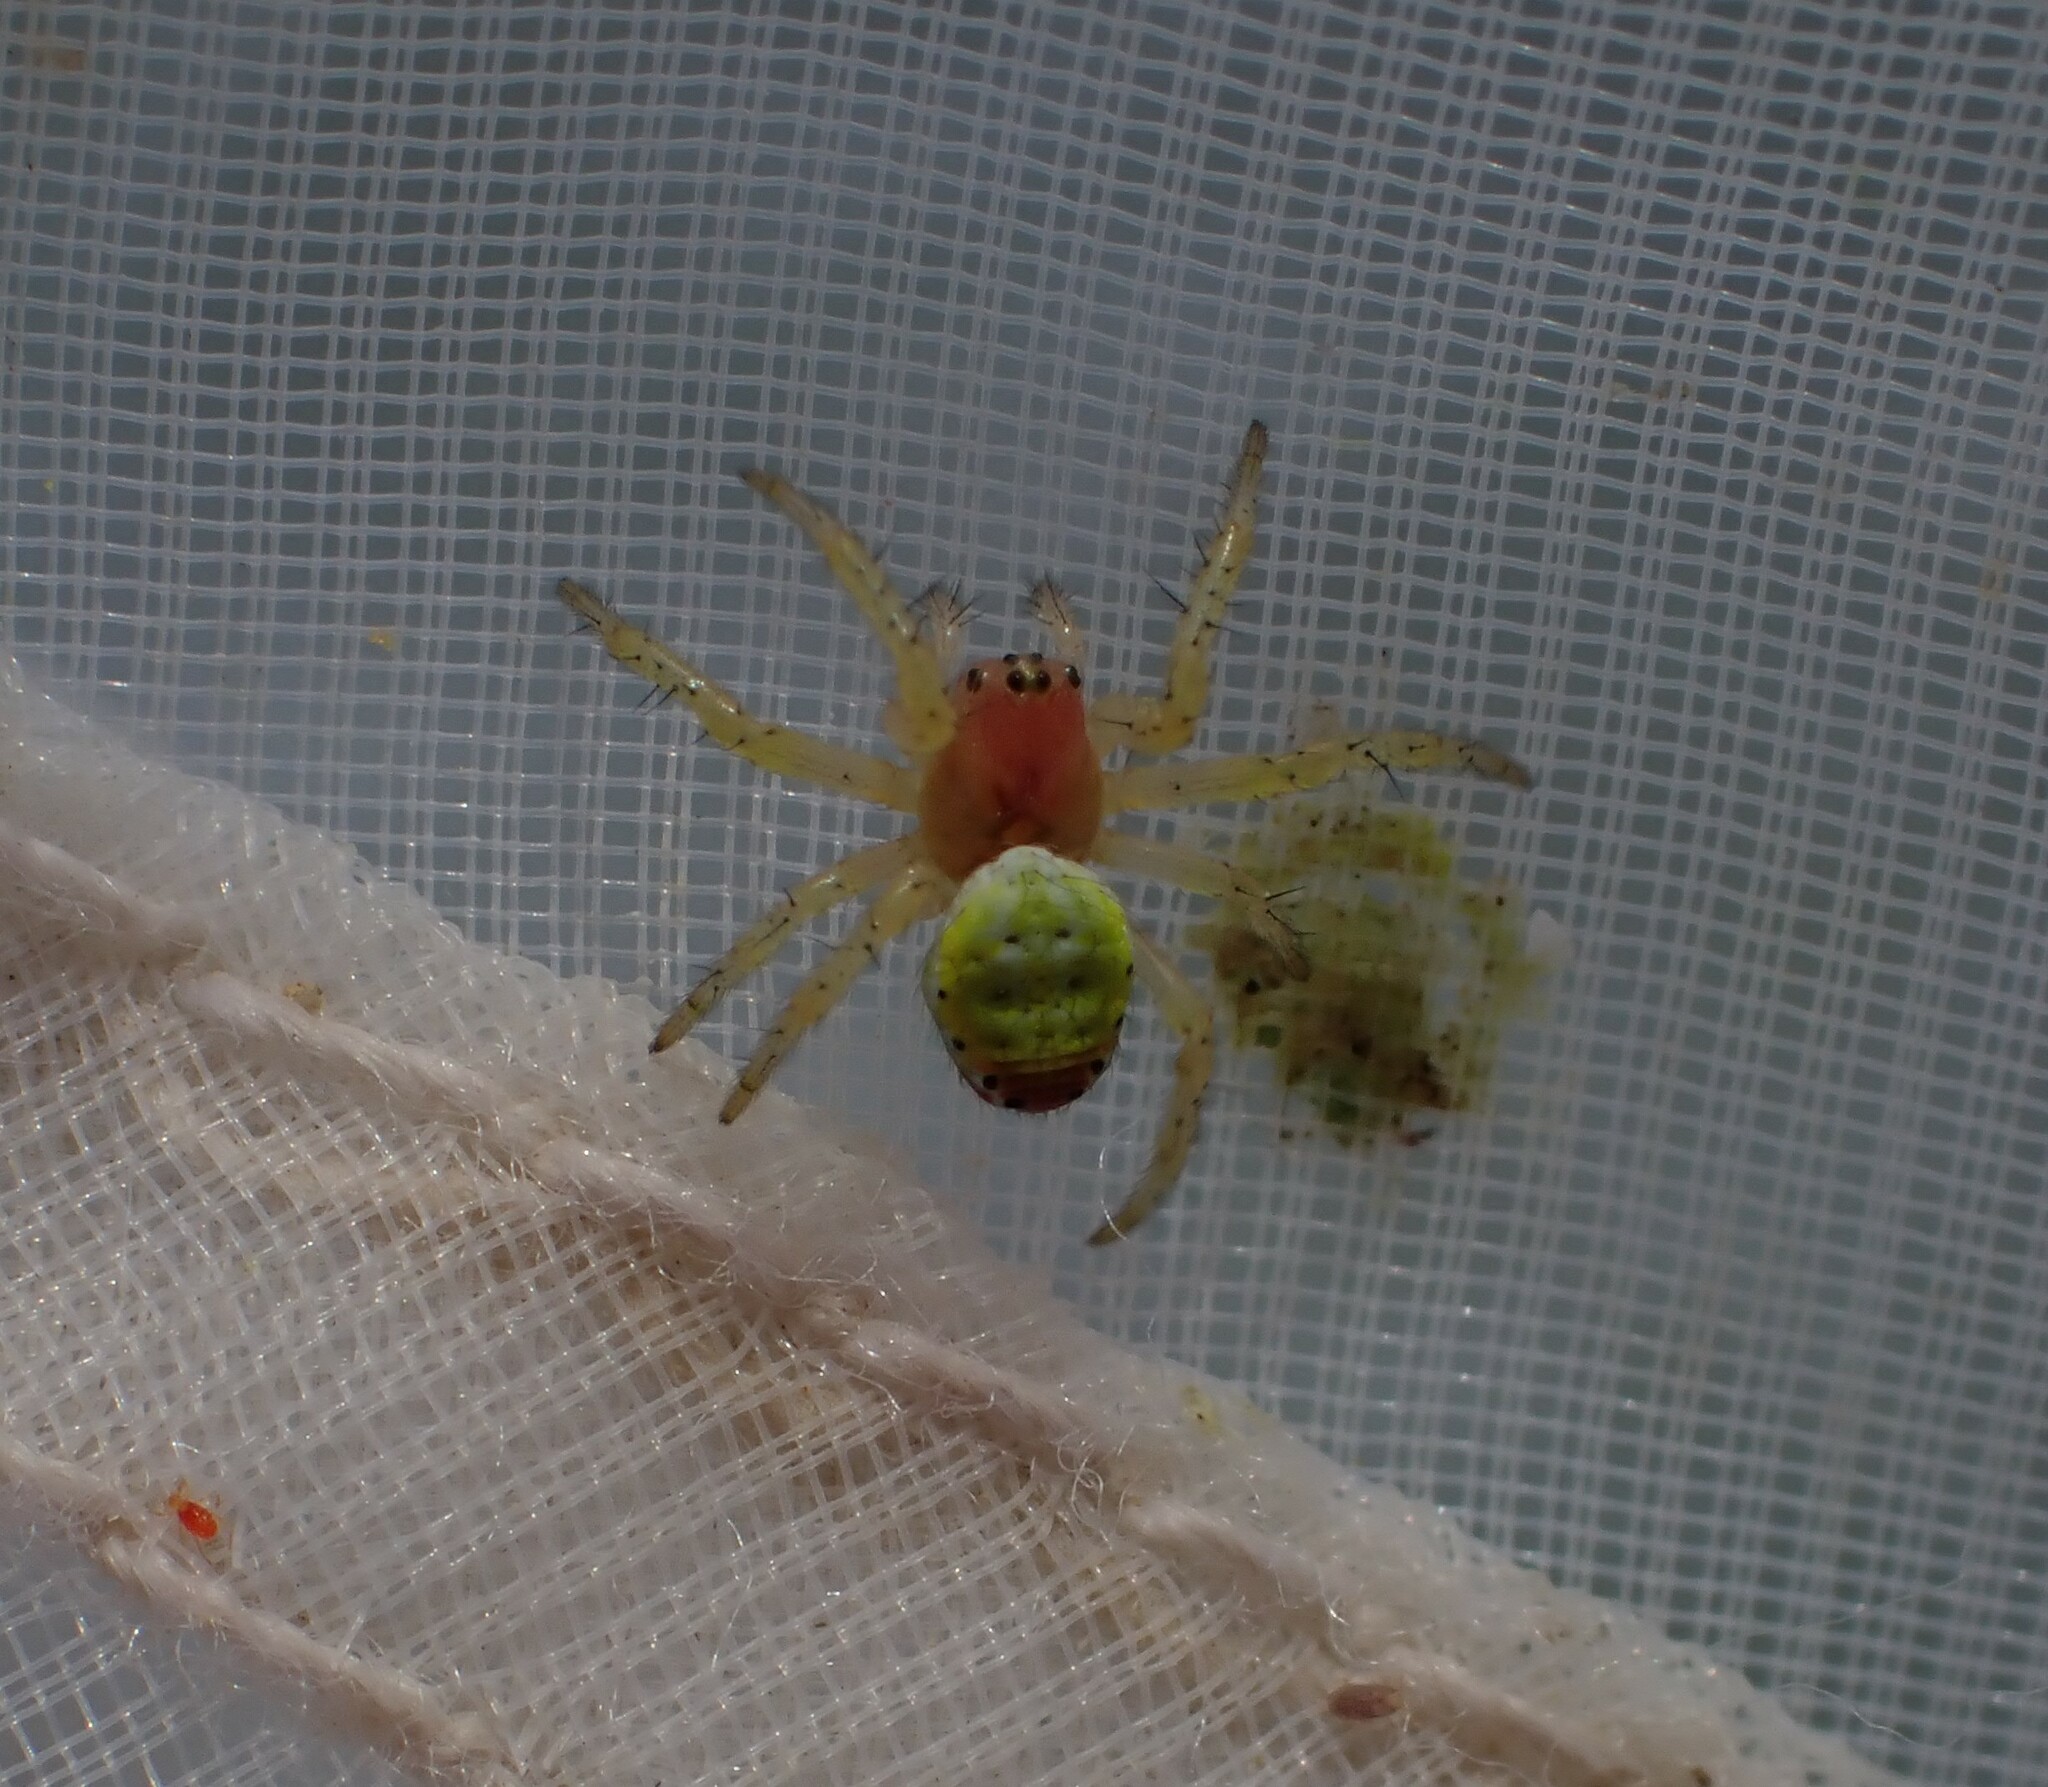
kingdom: Animalia
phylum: Arthropoda
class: Arachnida
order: Araneae
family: Araneidae
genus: Araniella
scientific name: Araniella
